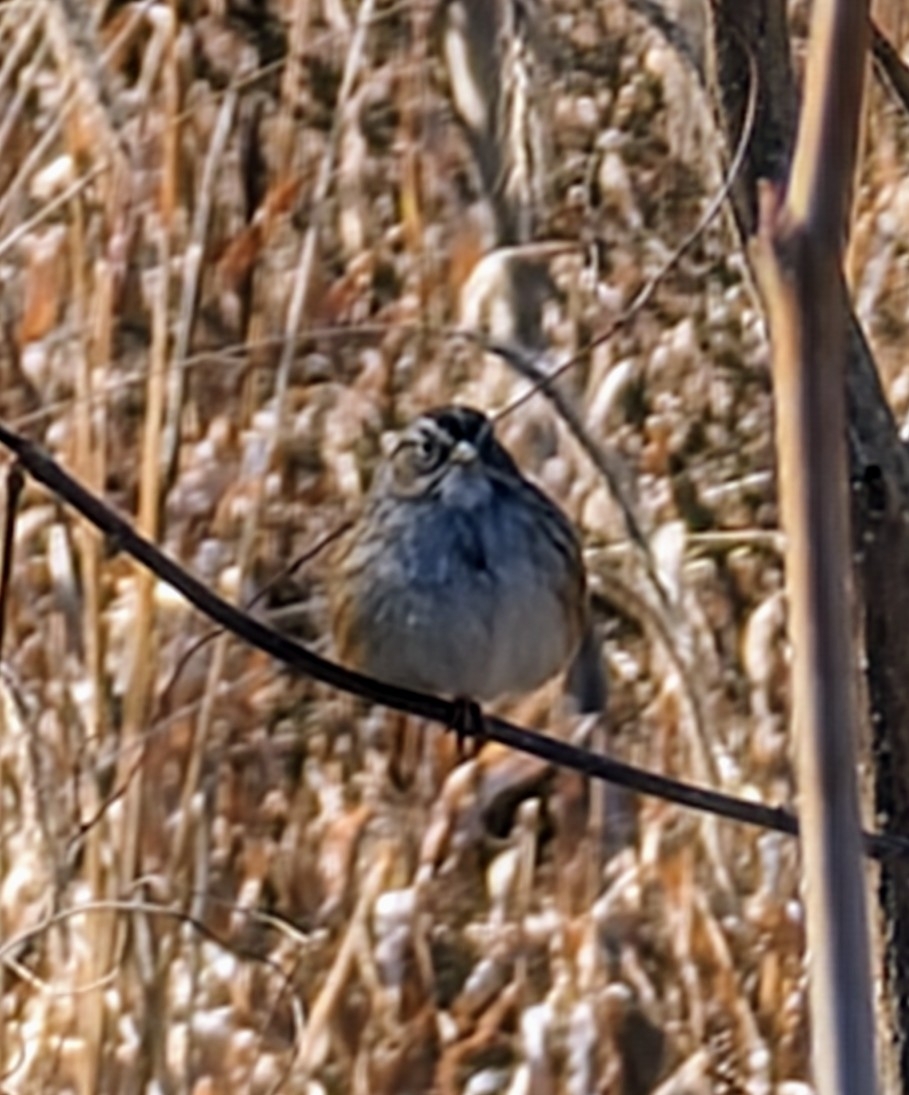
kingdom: Animalia
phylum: Chordata
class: Aves
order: Passeriformes
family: Passerellidae
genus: Melospiza
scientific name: Melospiza georgiana
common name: Swamp sparrow
